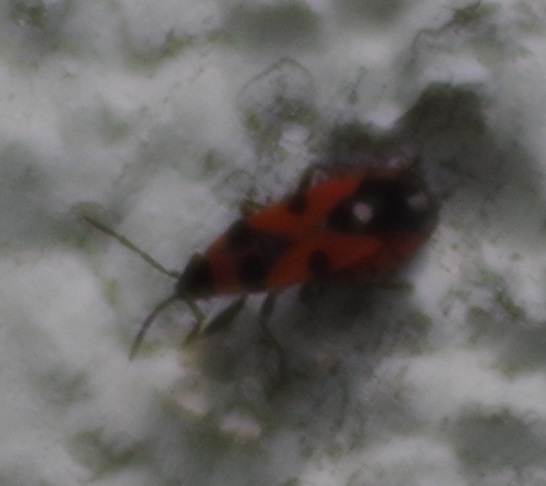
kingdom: Animalia
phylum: Arthropoda
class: Insecta
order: Hemiptera
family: Lygaeidae
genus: Horvathiolus
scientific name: Horvathiolus superbus
